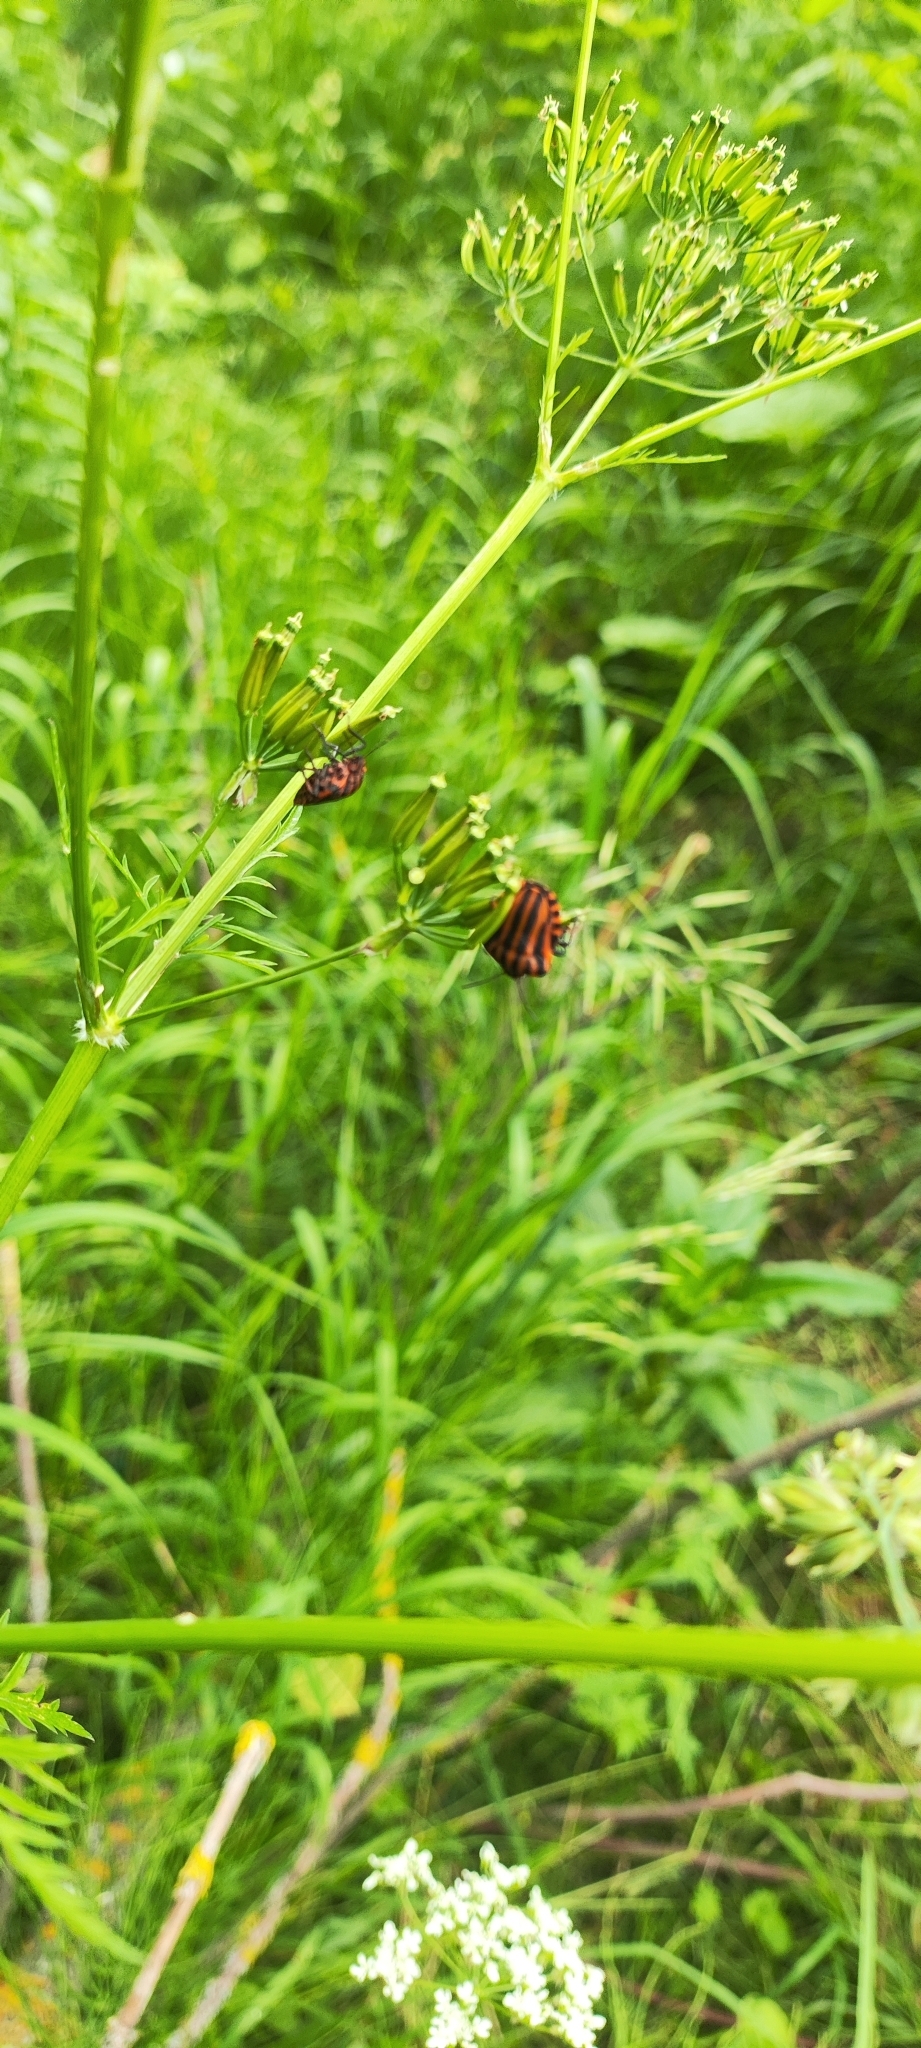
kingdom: Animalia
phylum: Arthropoda
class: Insecta
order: Hemiptera
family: Pentatomidae
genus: Graphosoma
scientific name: Graphosoma italicum
